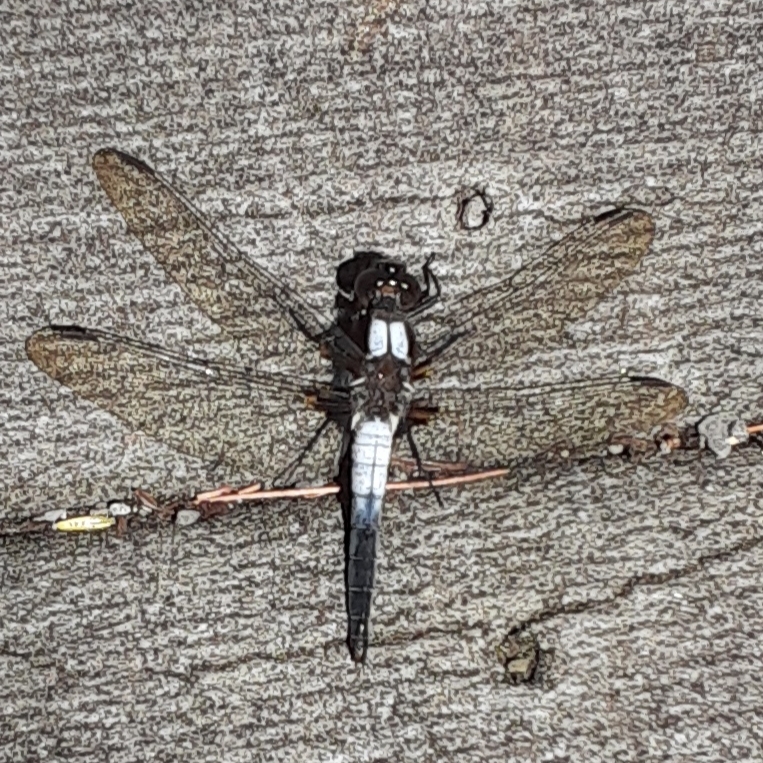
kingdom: Animalia
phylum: Arthropoda
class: Insecta
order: Odonata
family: Libellulidae
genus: Ladona
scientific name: Ladona julia
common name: Chalk-fronted corporal
